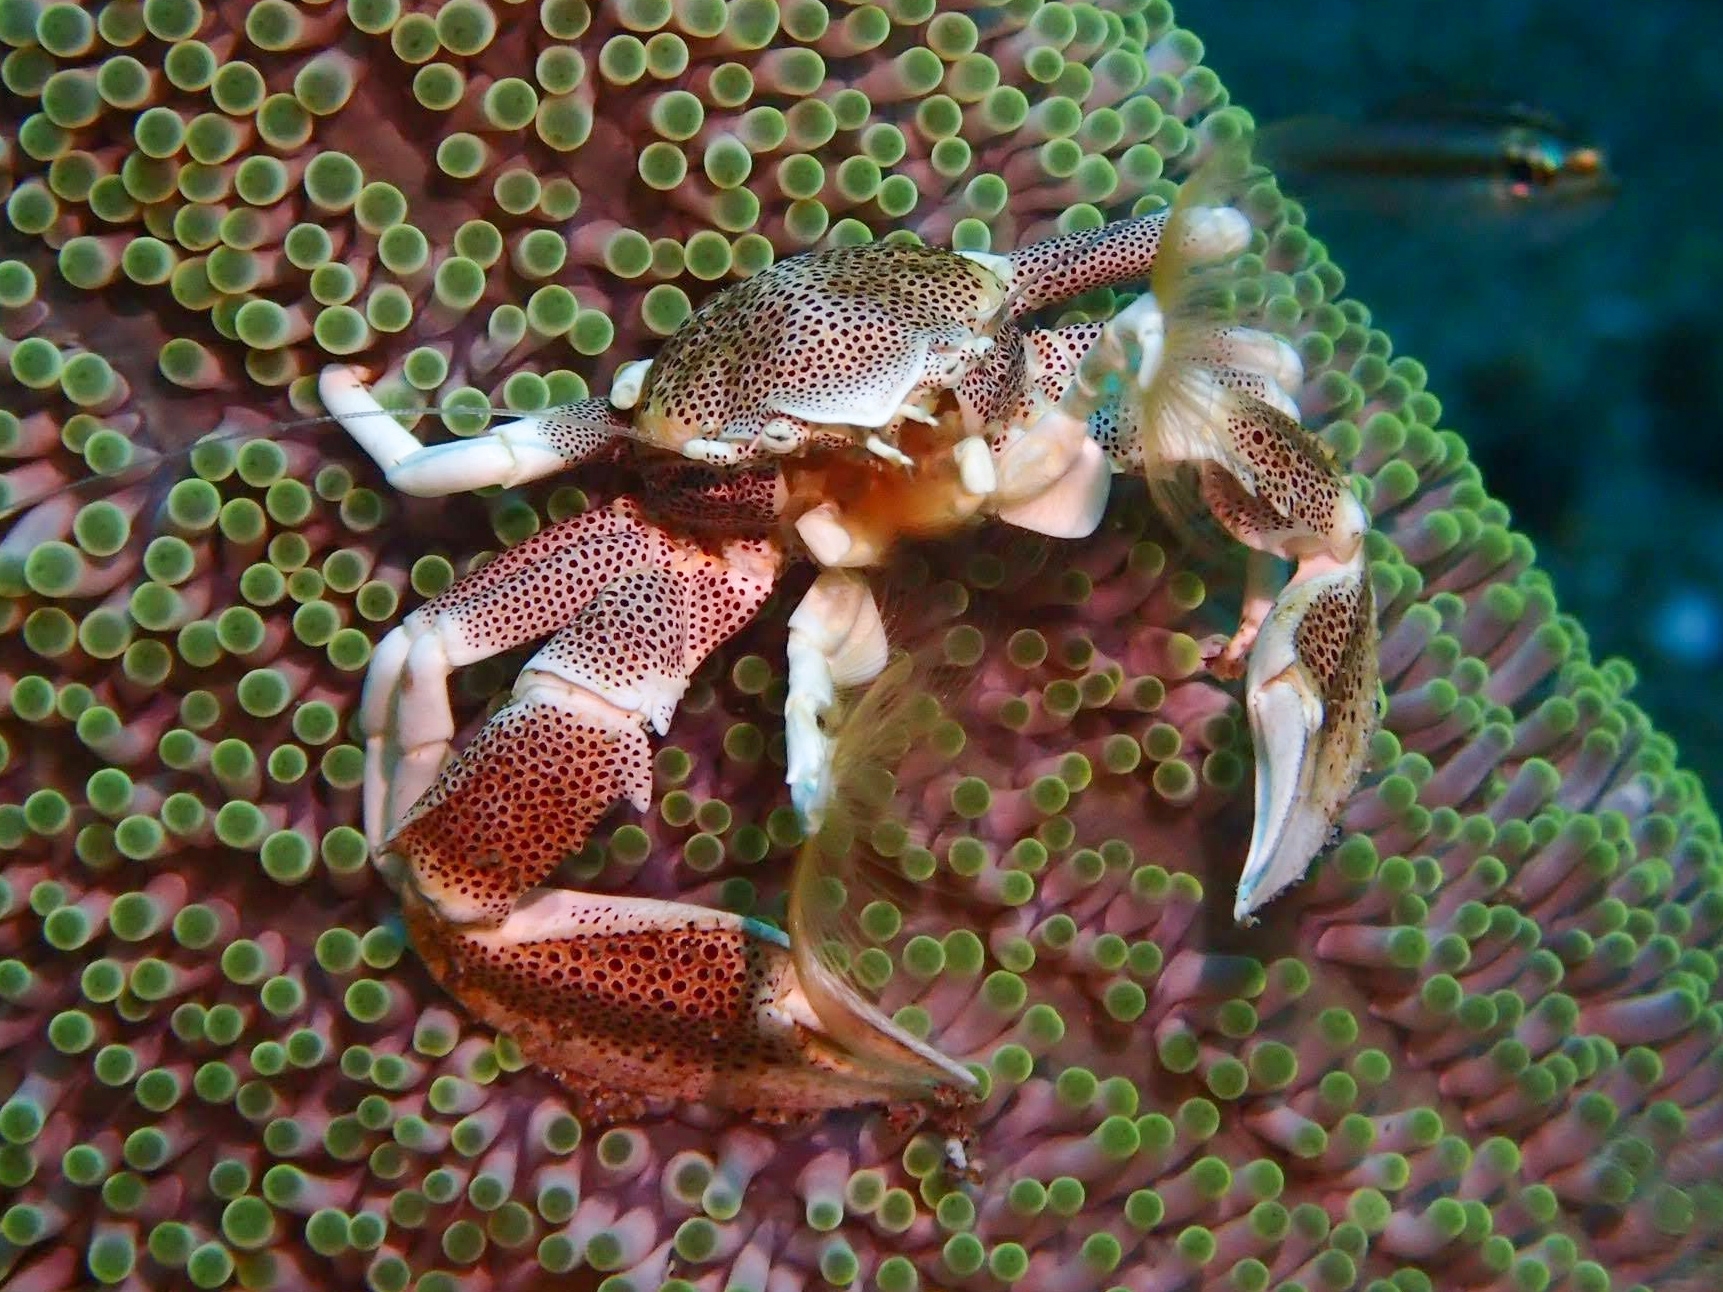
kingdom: Animalia
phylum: Arthropoda
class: Malacostraca
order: Decapoda
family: Porcellanidae
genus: Neopetrolisthes
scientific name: Neopetrolisthes maculatus
